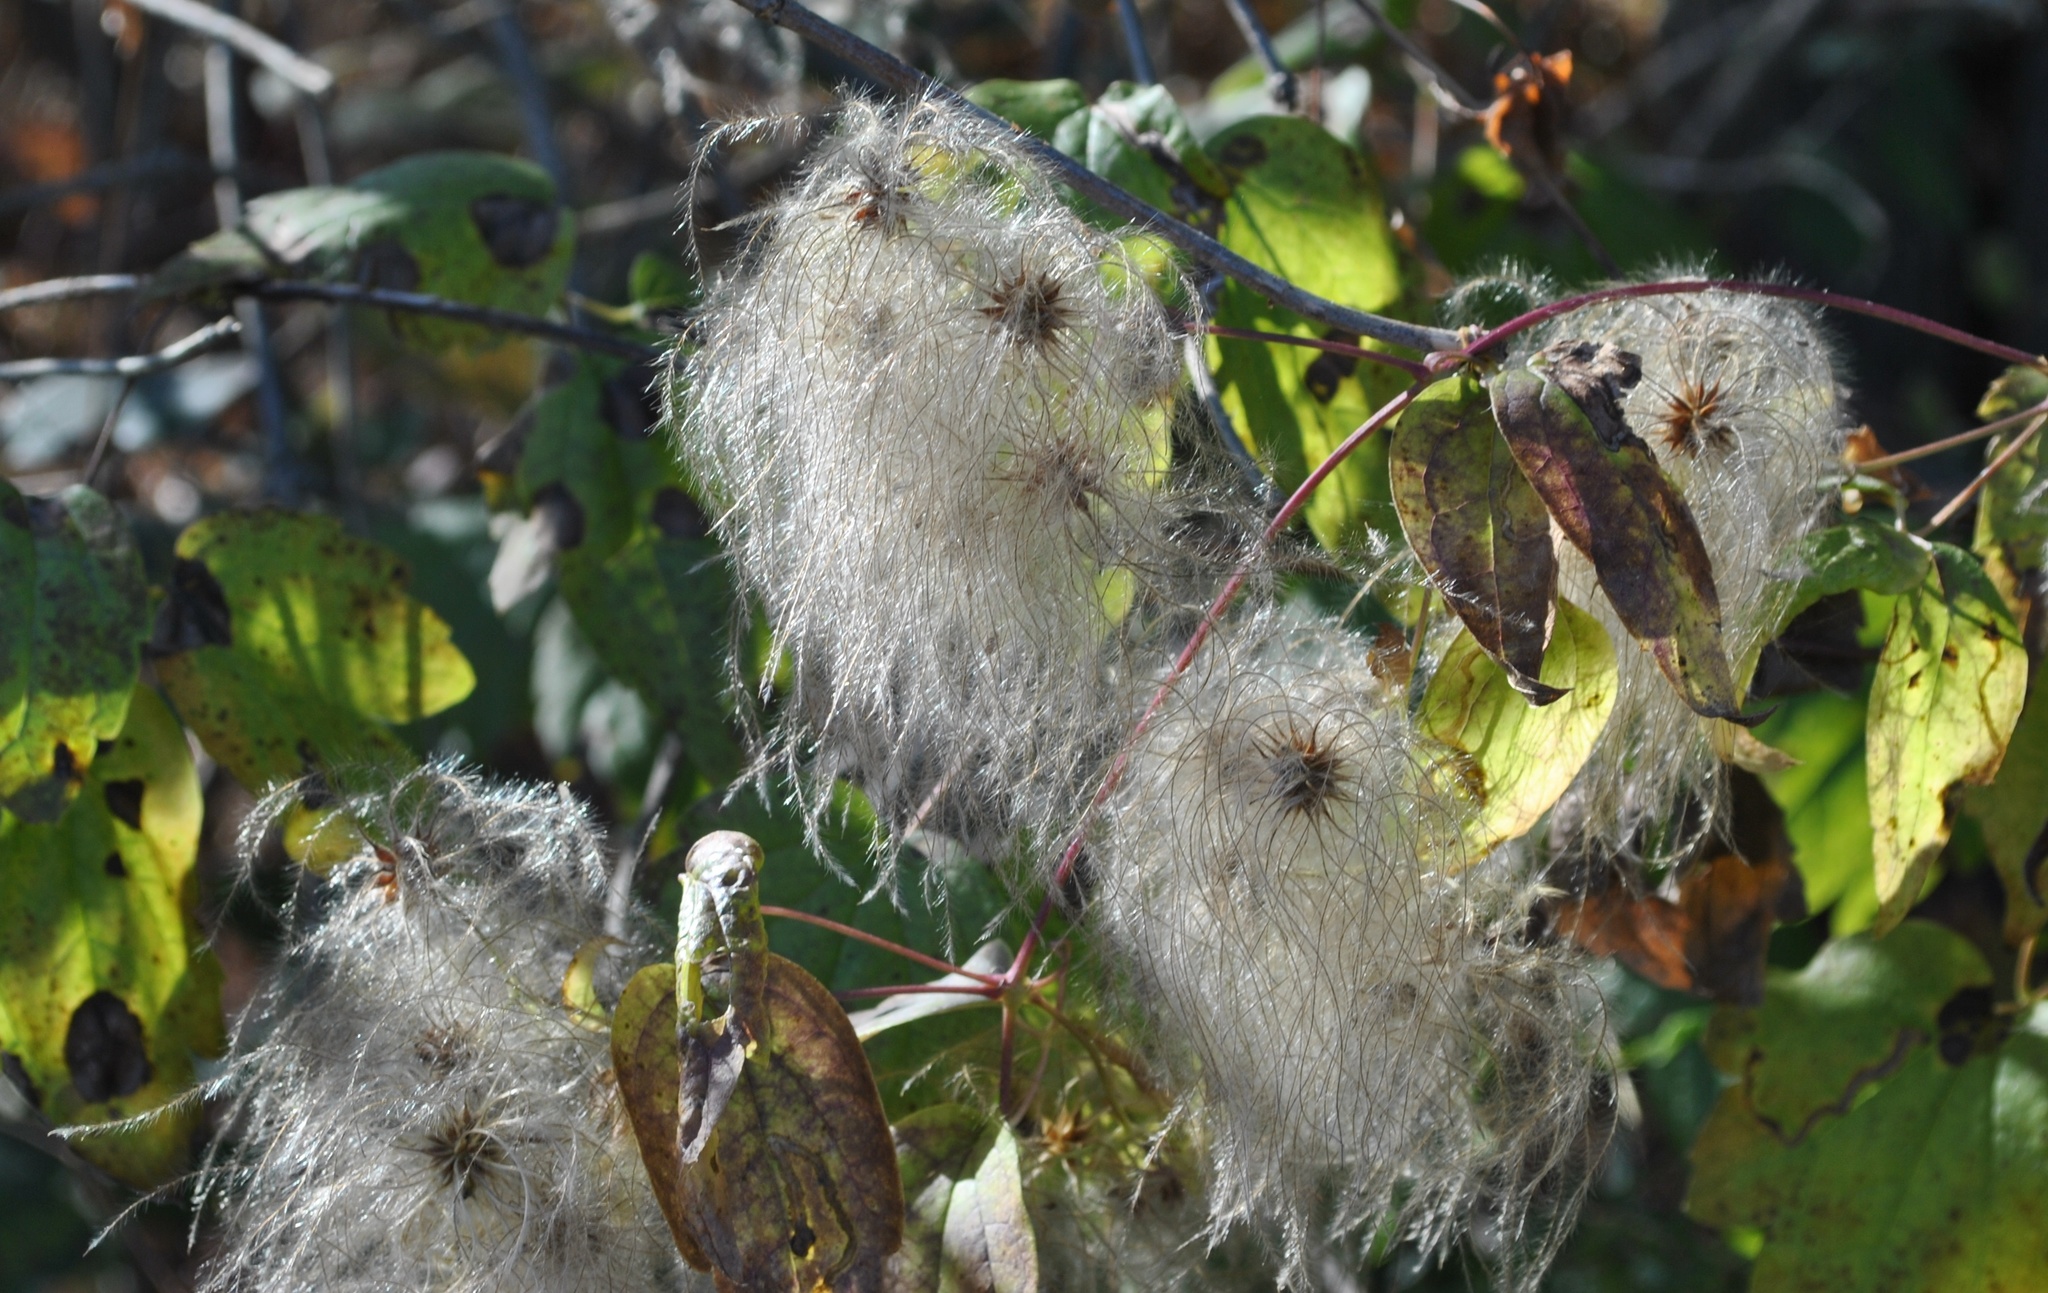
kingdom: Plantae
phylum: Tracheophyta
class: Magnoliopsida
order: Ranunculales
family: Ranunculaceae
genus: Clematis
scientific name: Clematis virginiana
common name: Virgin's-bower
